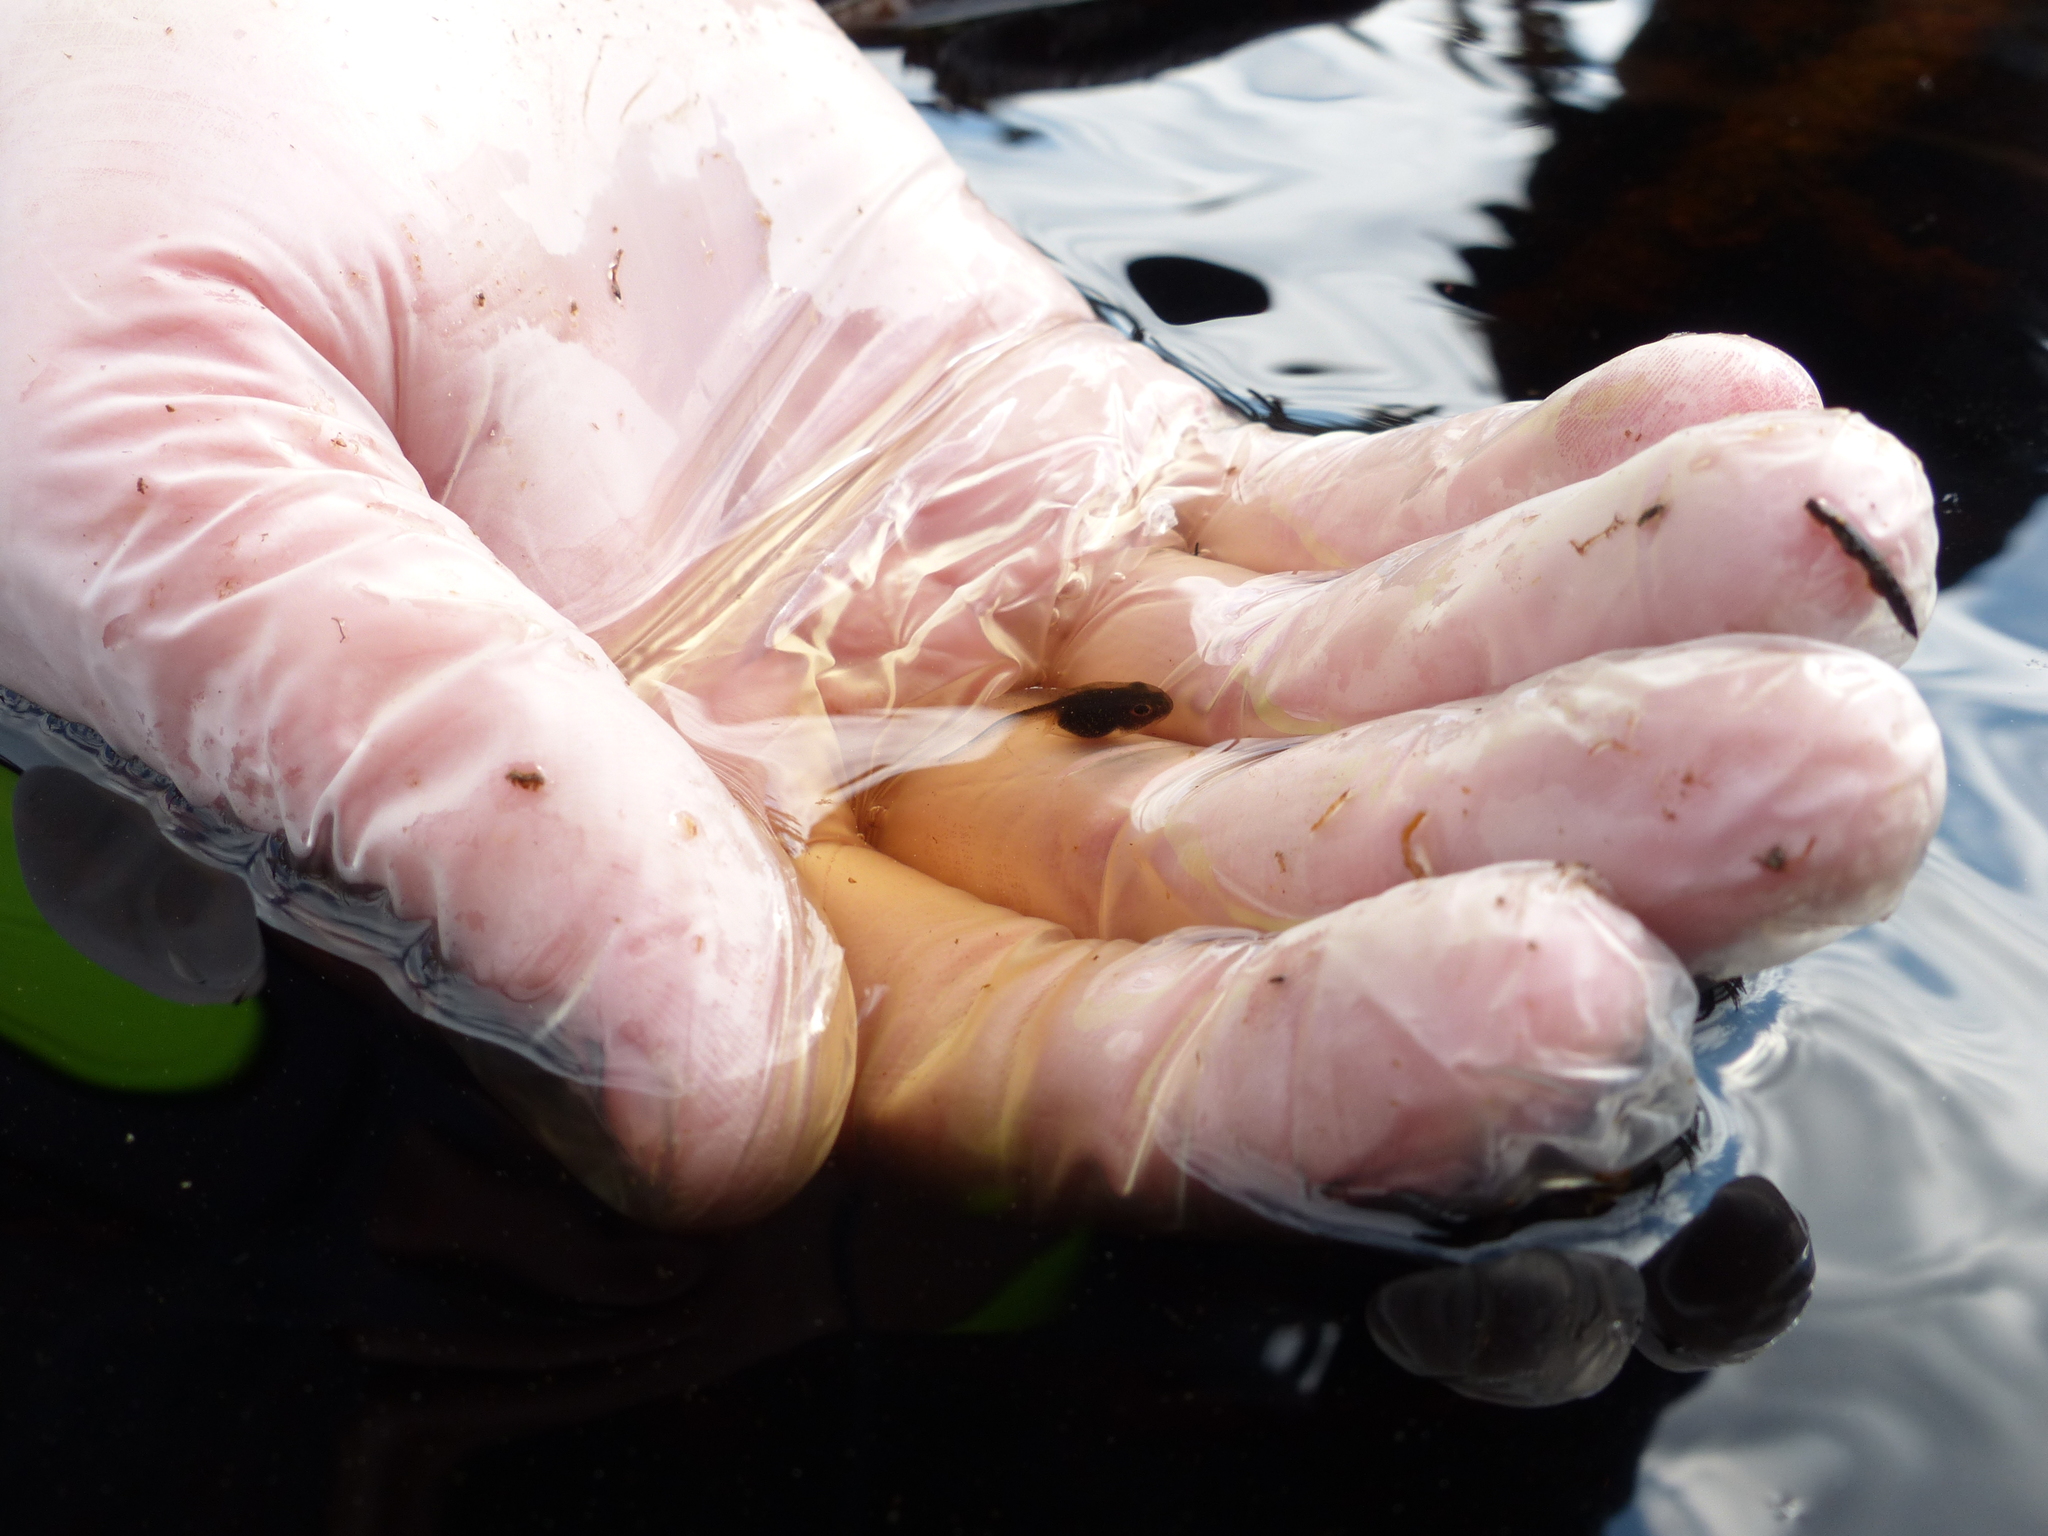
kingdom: Animalia
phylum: Chordata
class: Amphibia
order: Anura
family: Ranidae
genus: Lithobates
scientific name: Lithobates sylvaticus
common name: Wood frog
